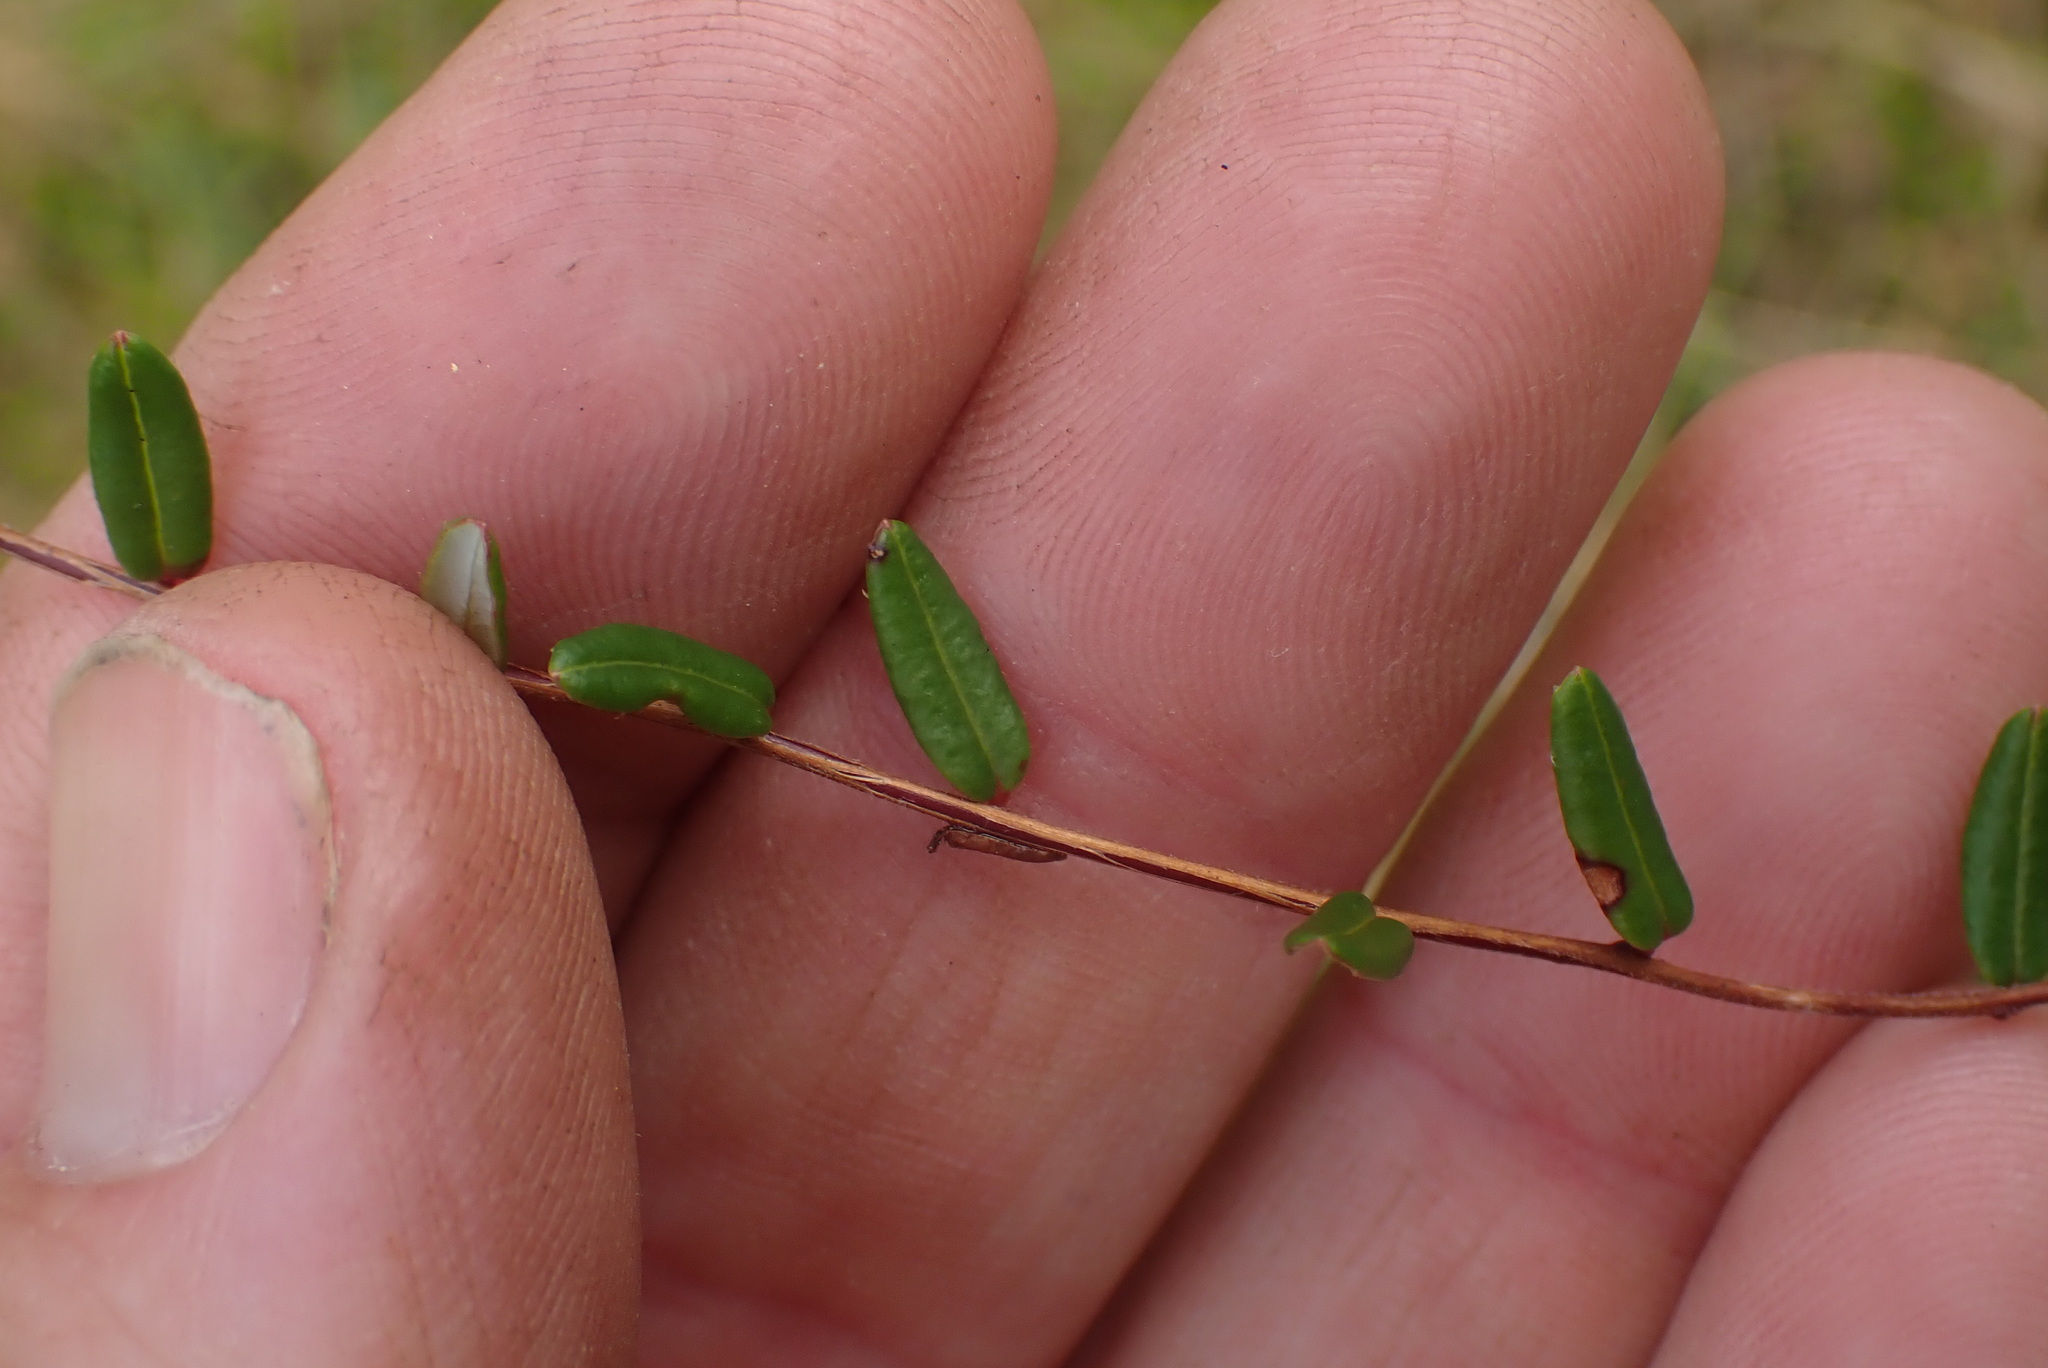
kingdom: Plantae
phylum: Tracheophyta
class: Magnoliopsida
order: Ericales
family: Ericaceae
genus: Vaccinium
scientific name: Vaccinium oxycoccos
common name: Cranberry
